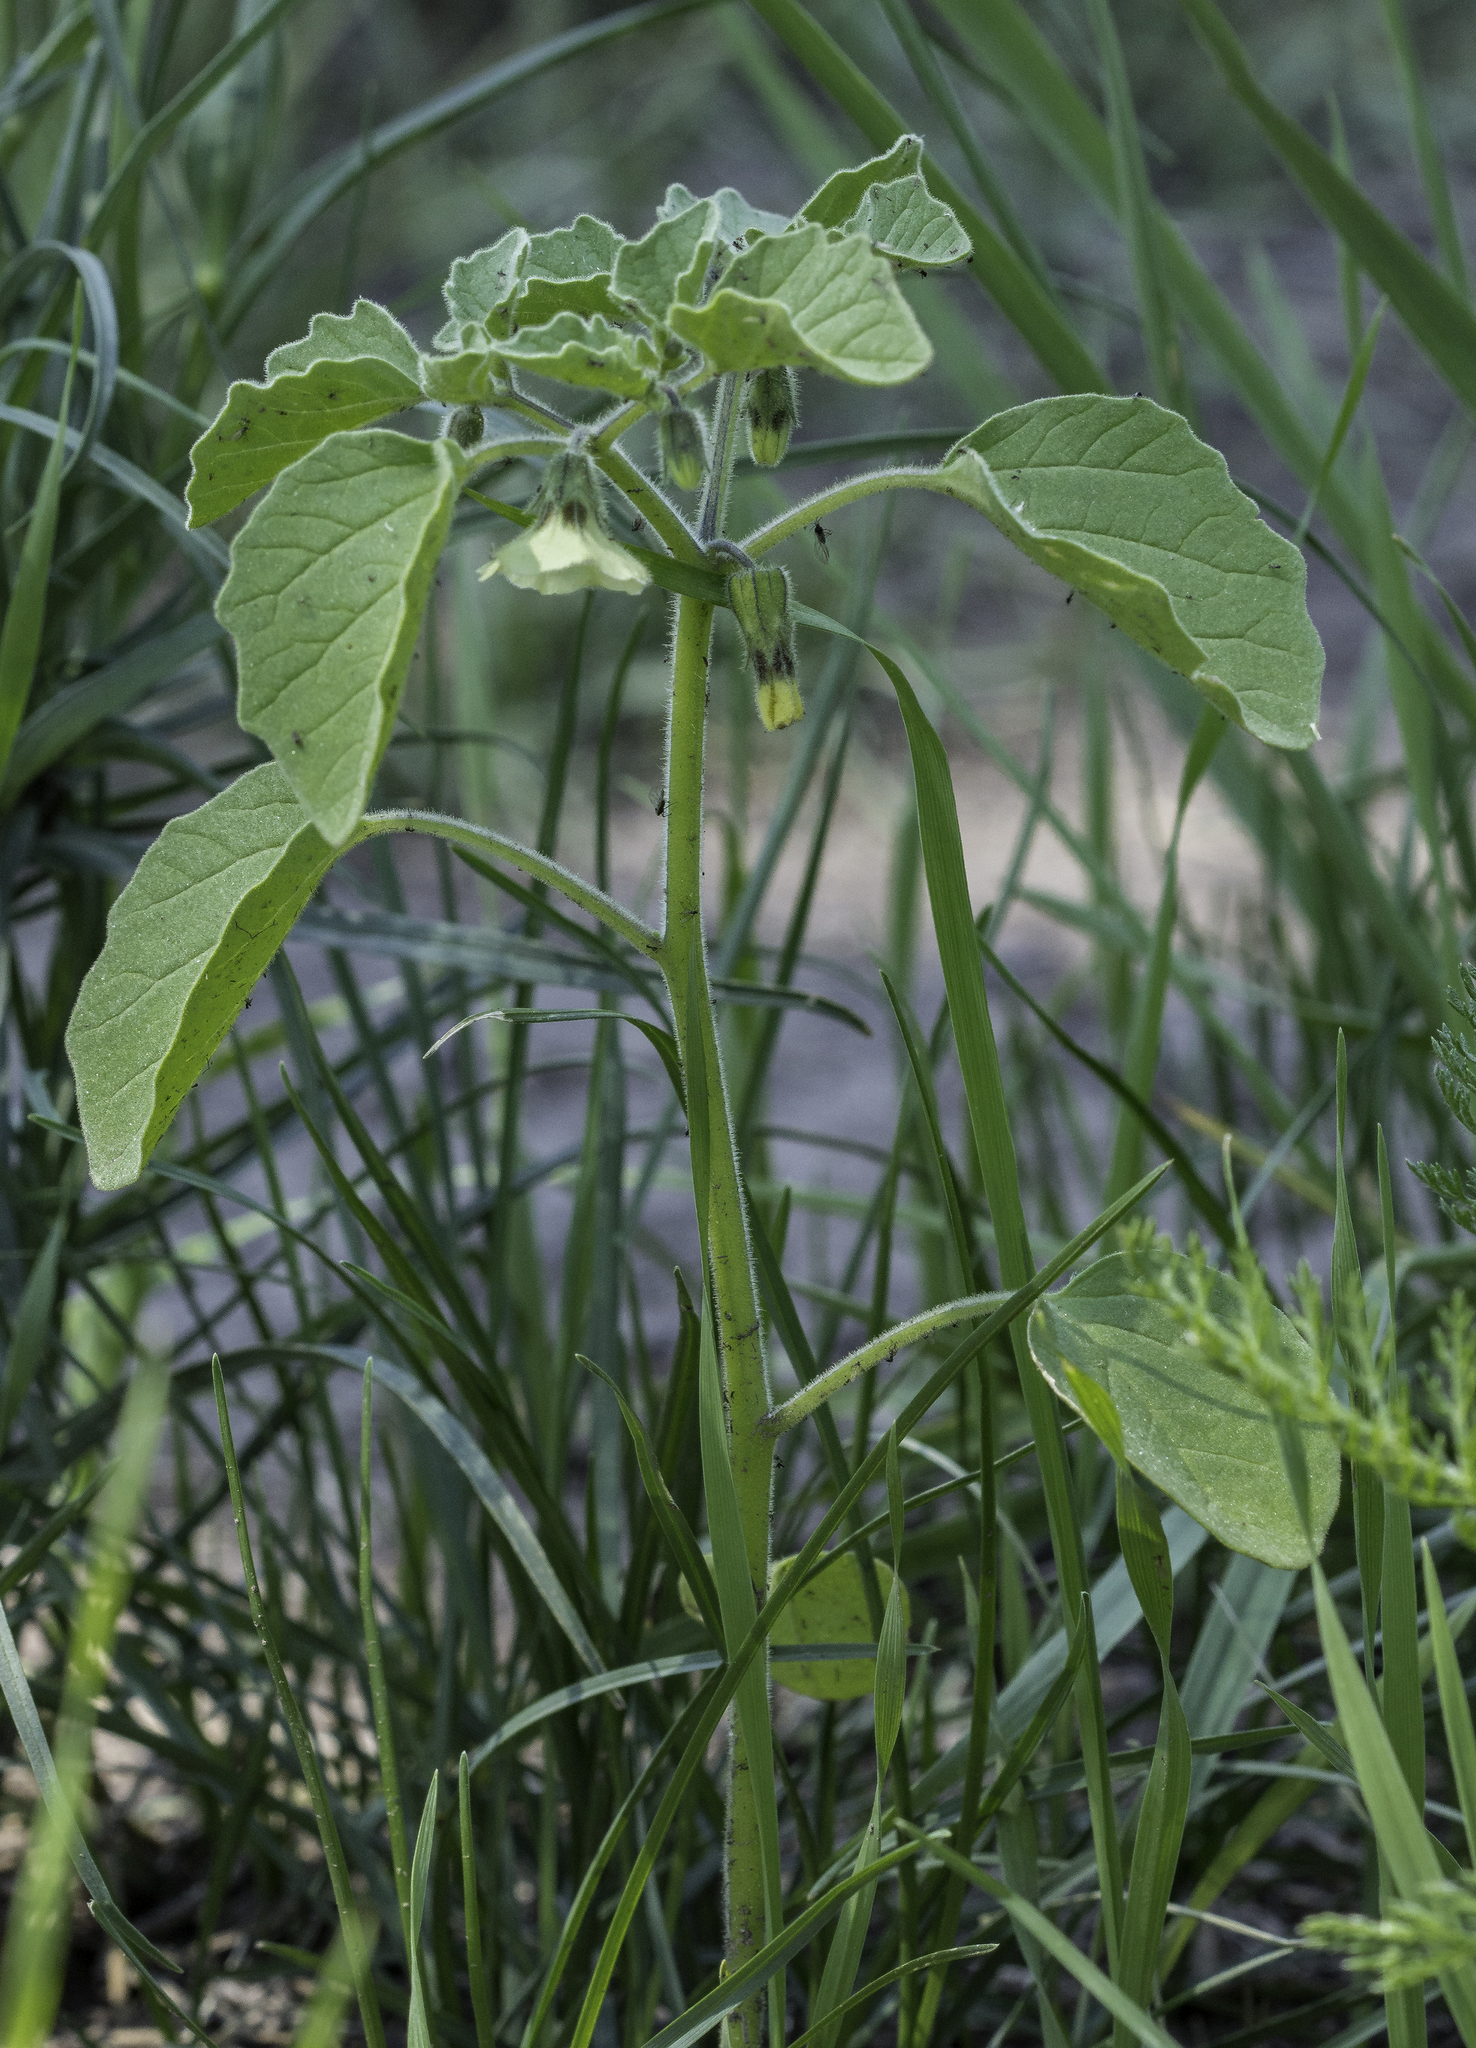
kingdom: Plantae
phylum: Tracheophyta
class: Magnoliopsida
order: Solanales
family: Solanaceae
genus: Physalis
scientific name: Physalis neomexicana
